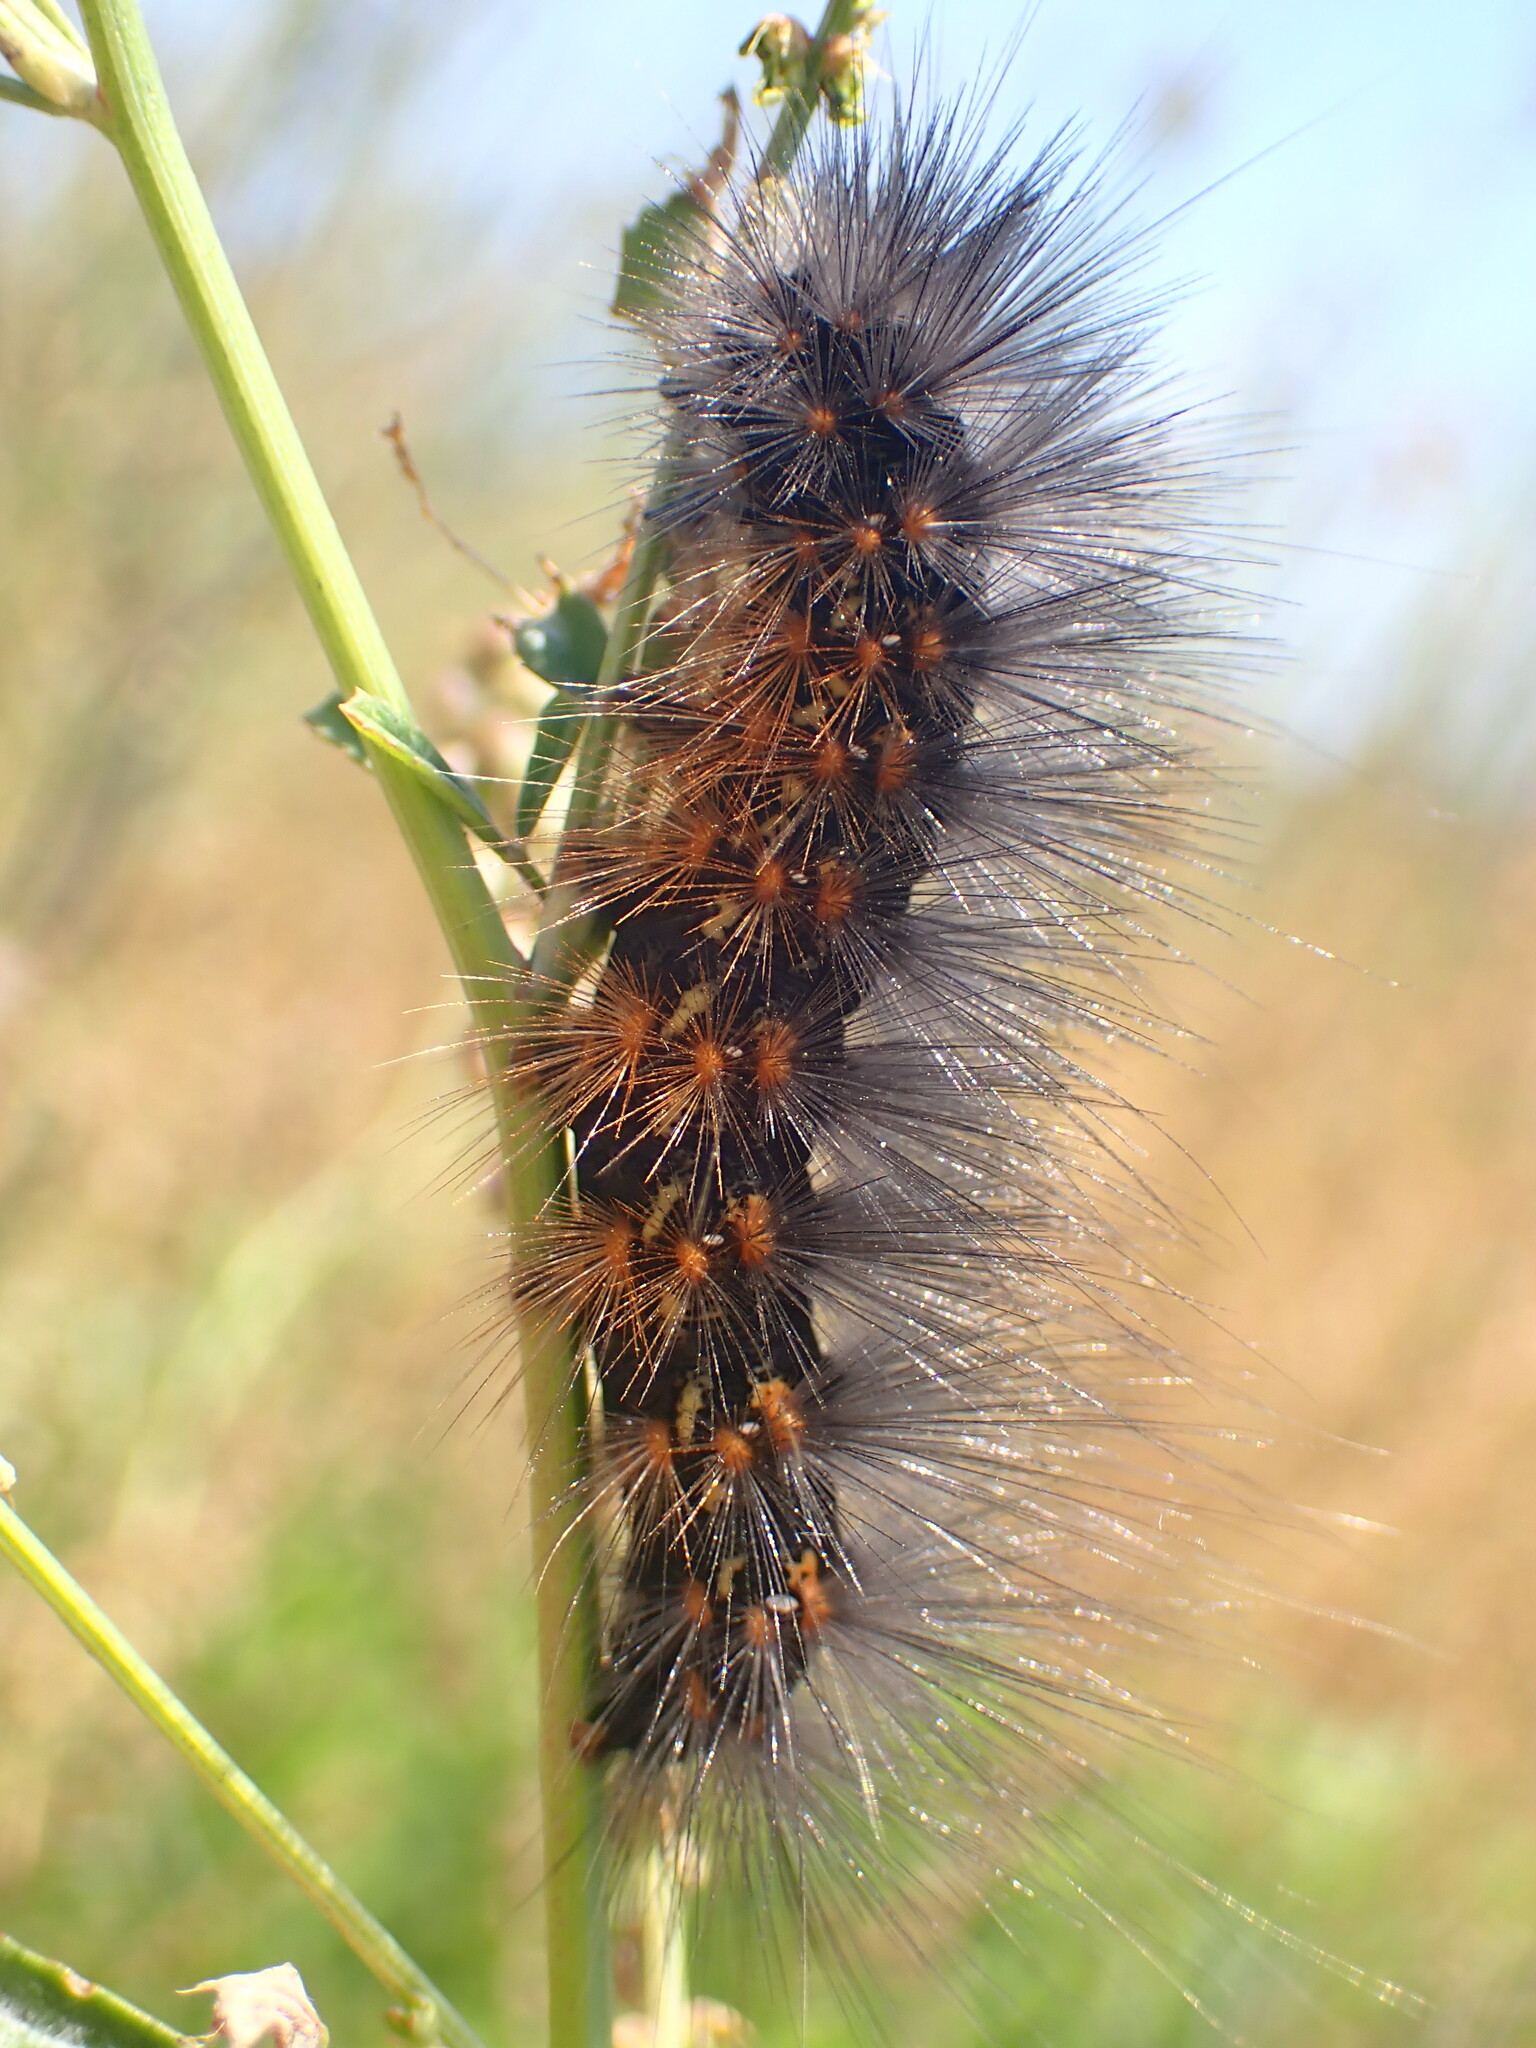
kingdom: Animalia
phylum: Arthropoda
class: Insecta
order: Lepidoptera
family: Erebidae
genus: Estigmene
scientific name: Estigmene acrea
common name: Salt marsh moth
